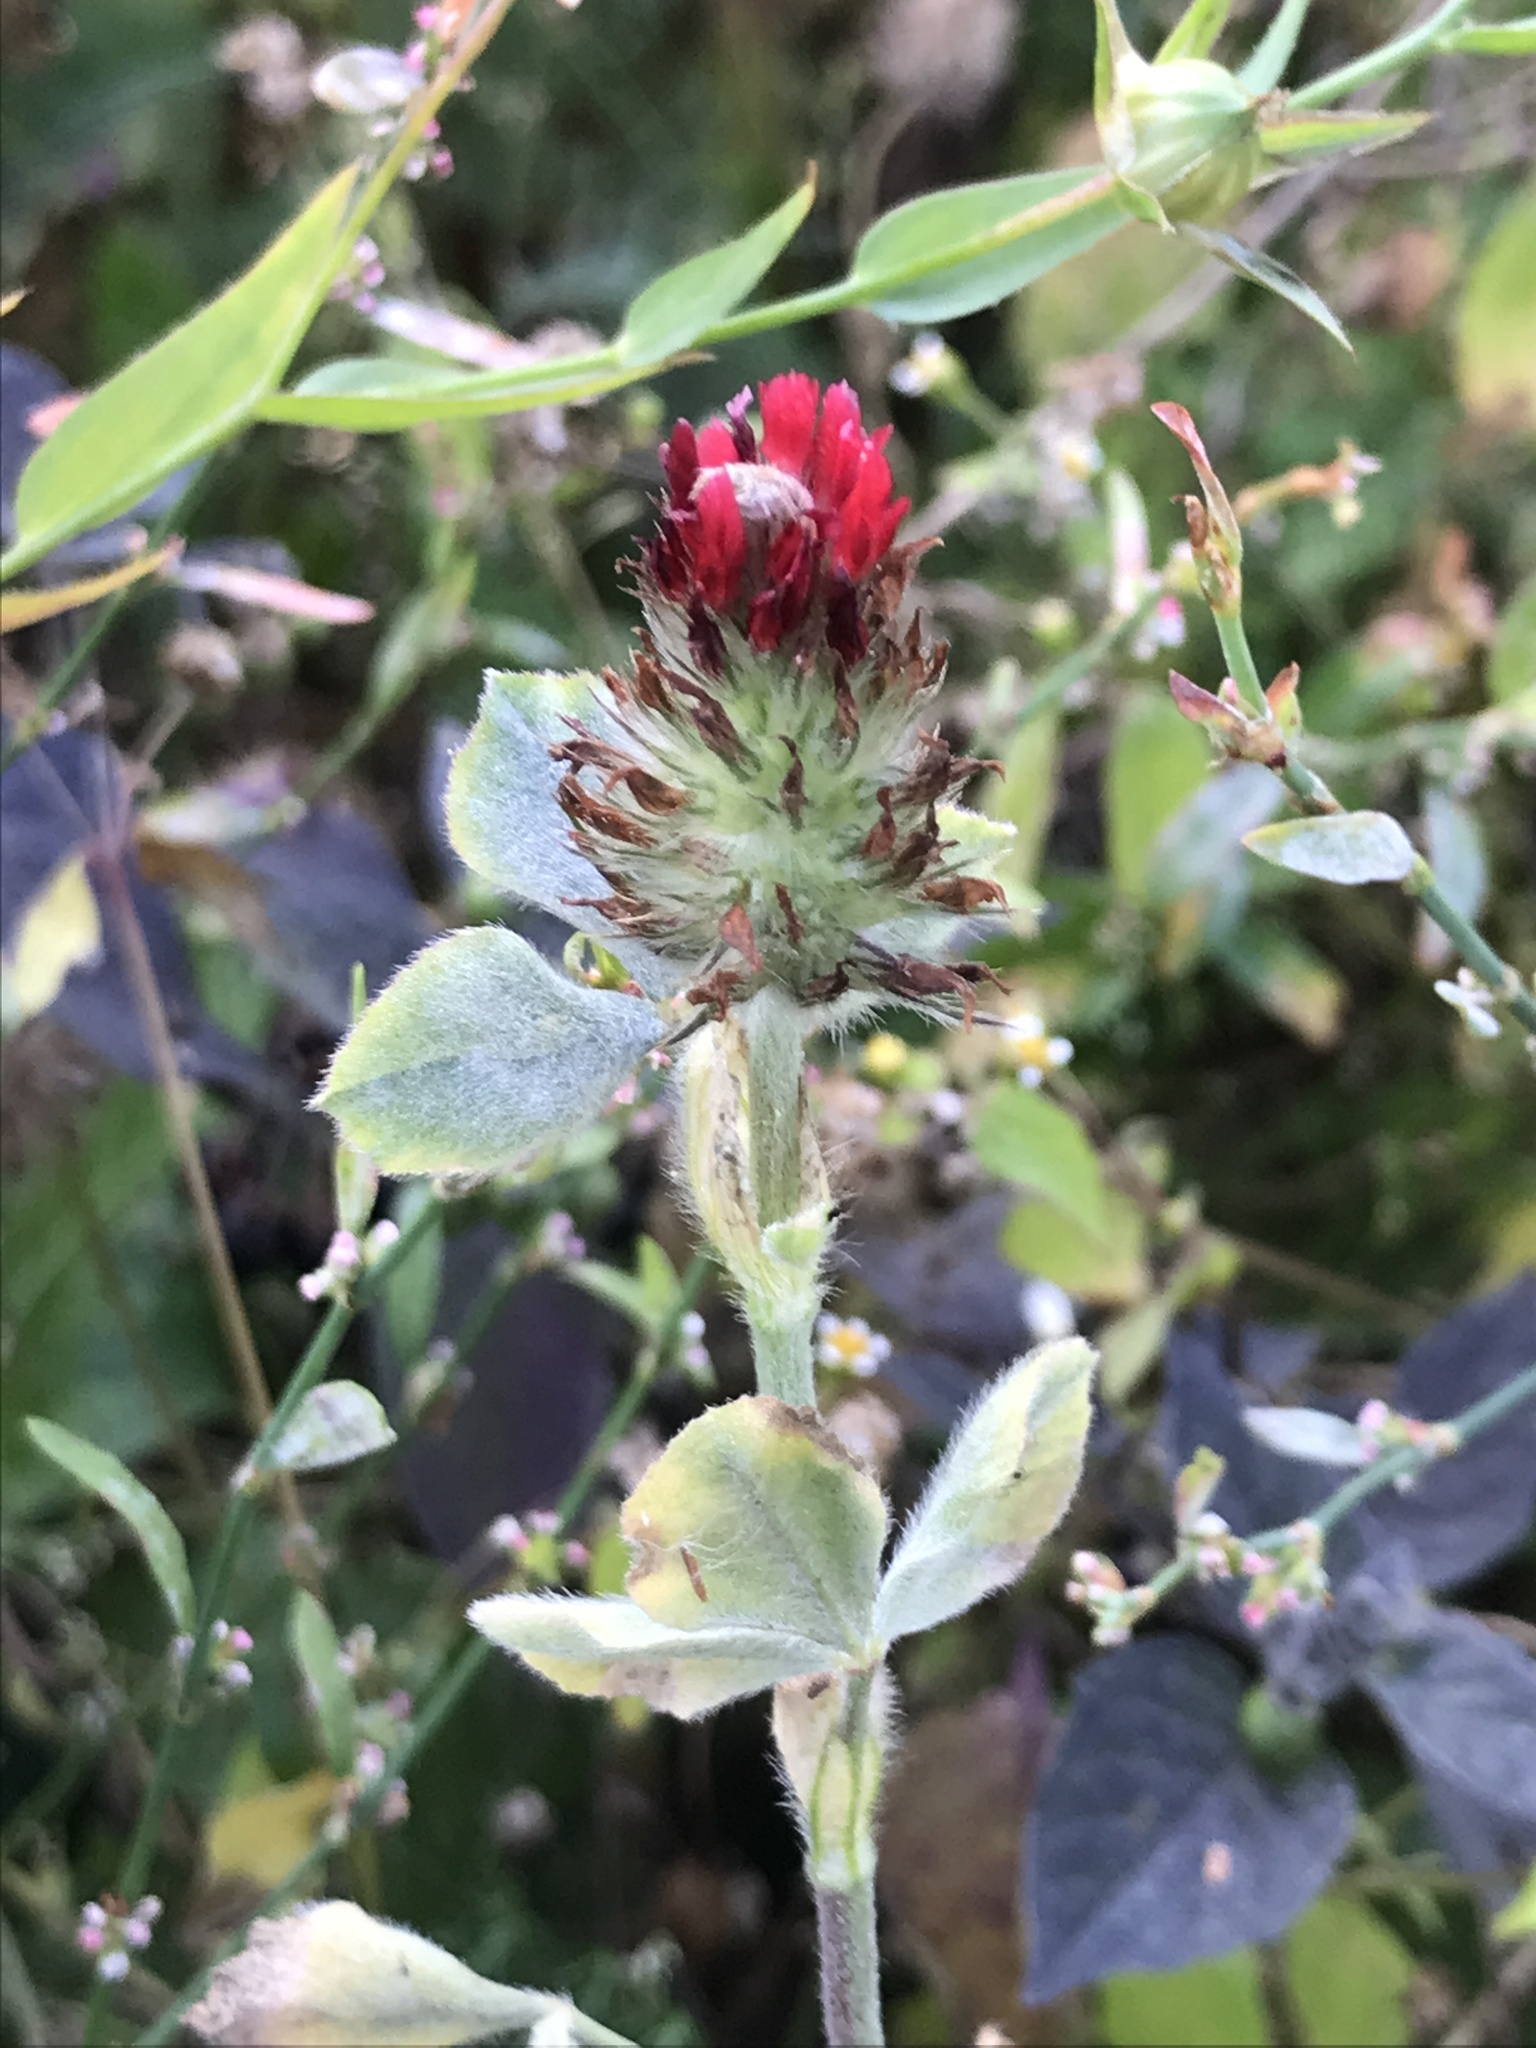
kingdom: Plantae
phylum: Tracheophyta
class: Magnoliopsida
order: Fabales
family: Fabaceae
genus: Trifolium
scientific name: Trifolium incarnatum
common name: Crimson clover
